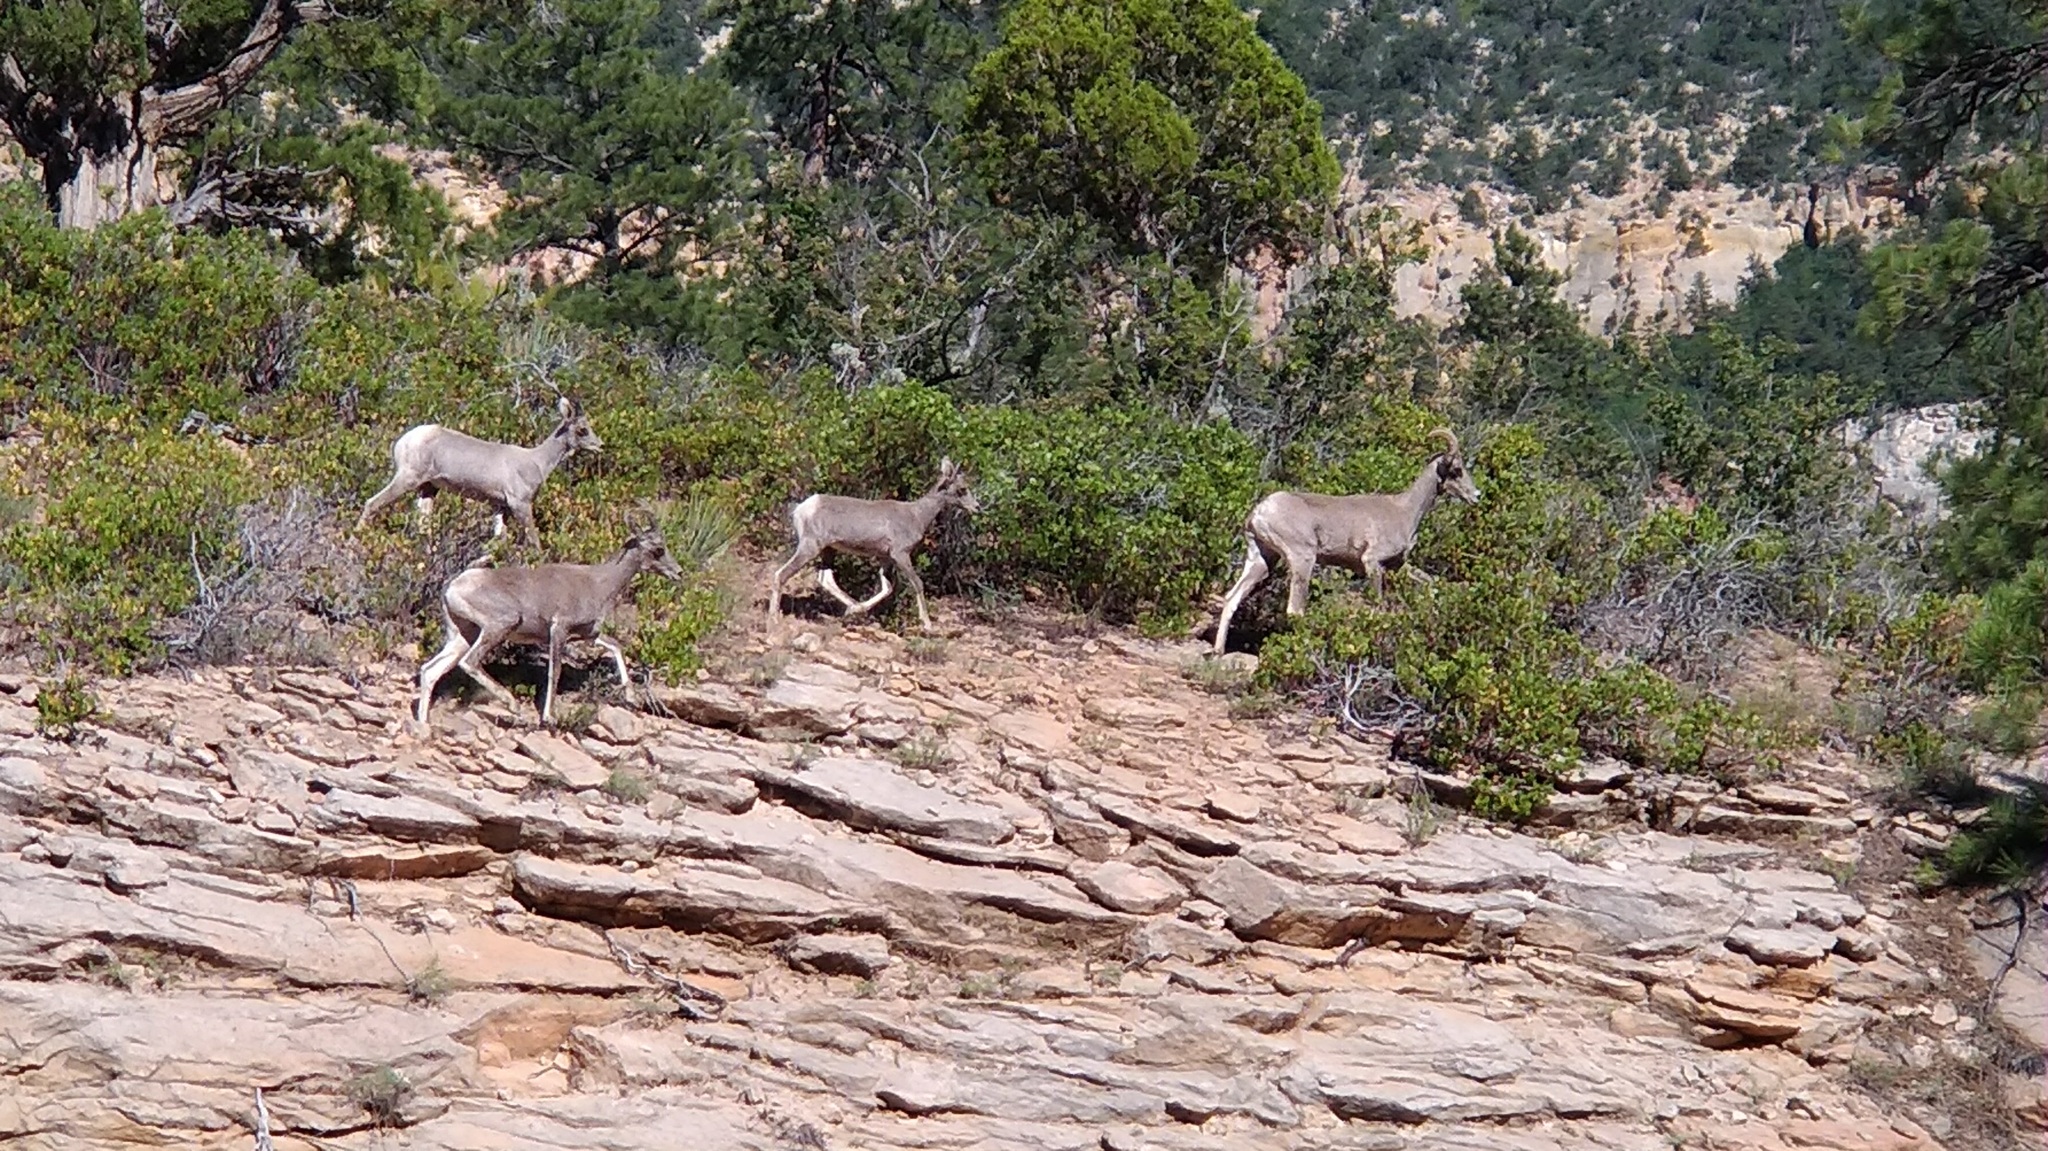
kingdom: Animalia
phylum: Chordata
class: Mammalia
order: Artiodactyla
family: Bovidae
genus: Ovis
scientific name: Ovis canadensis
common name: Bighorn sheep
